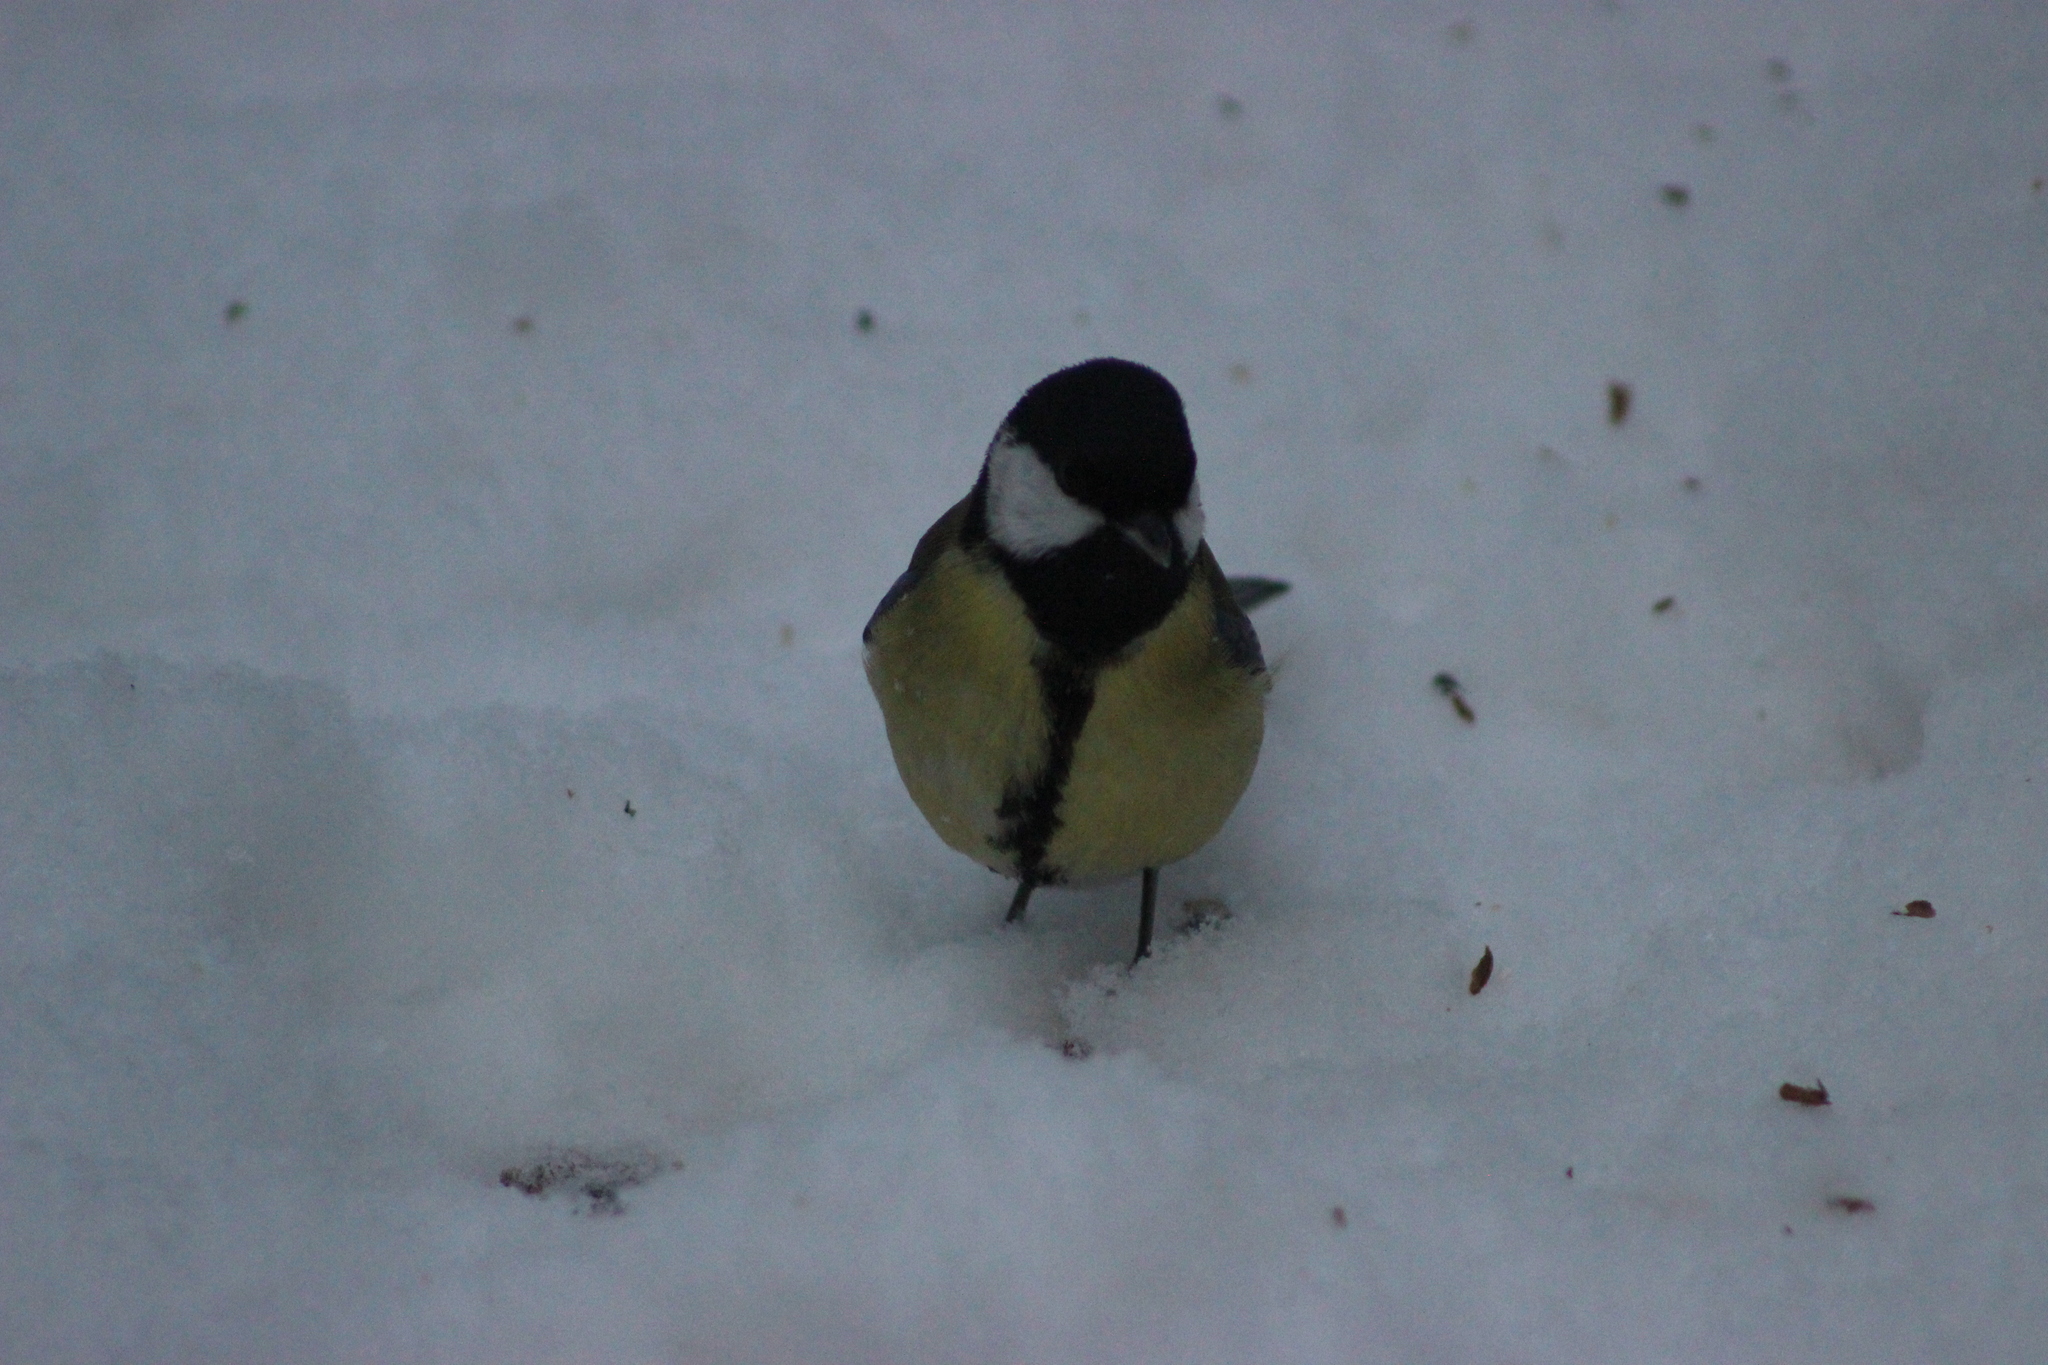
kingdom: Animalia
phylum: Chordata
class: Aves
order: Passeriformes
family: Paridae
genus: Parus
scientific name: Parus major
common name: Great tit
